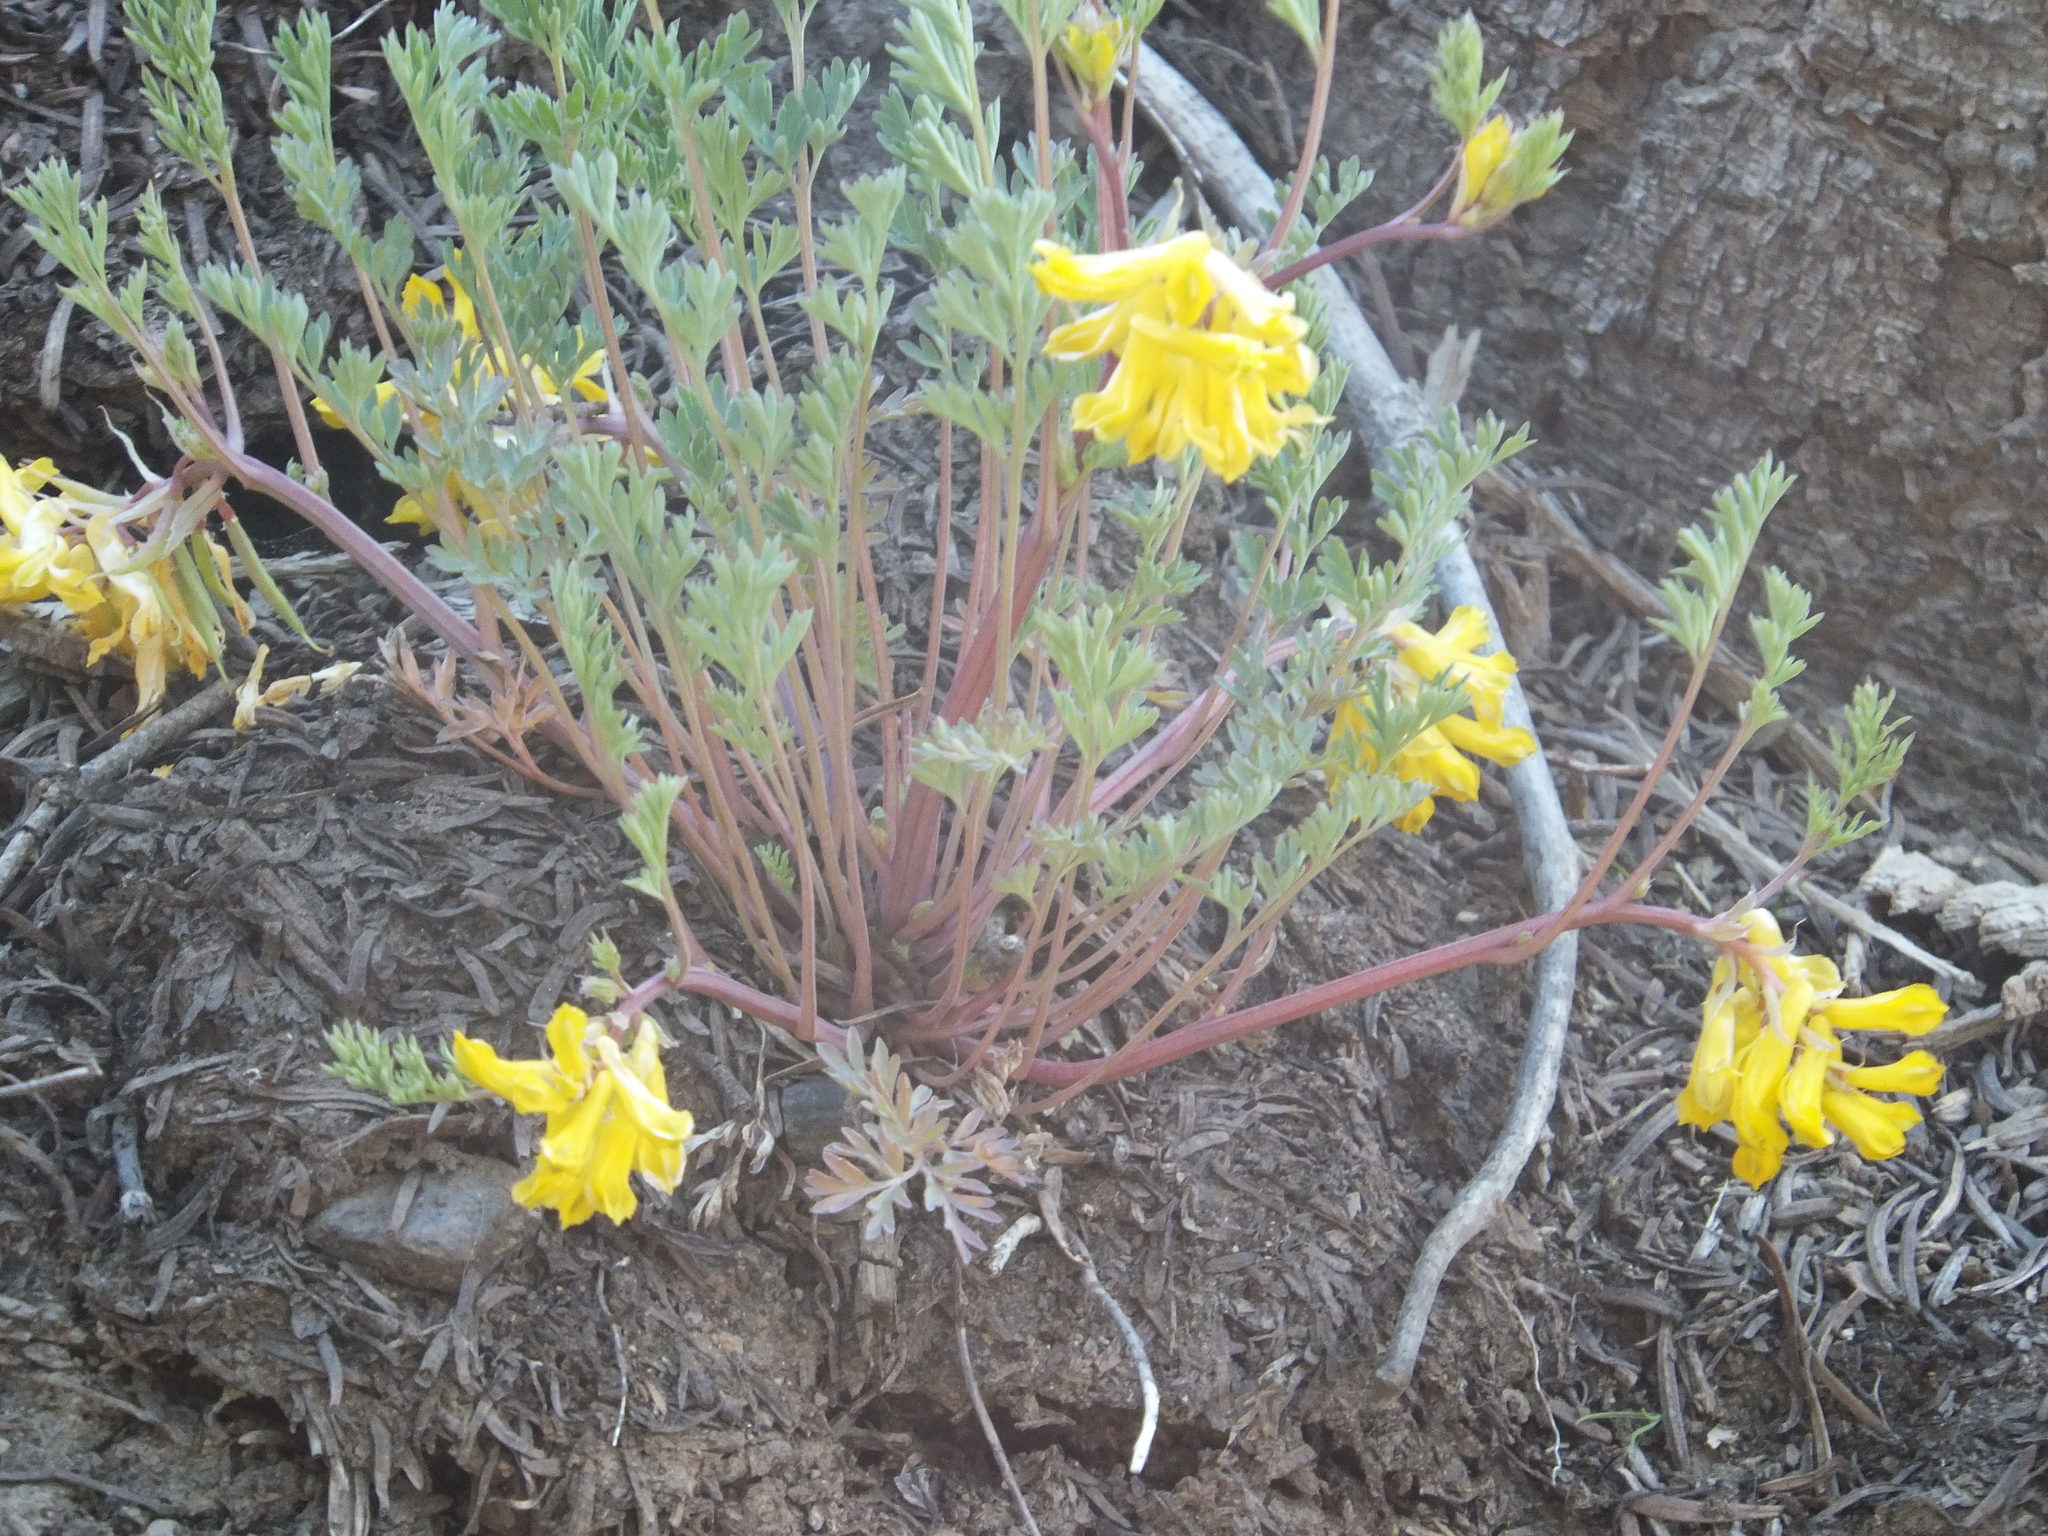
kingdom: Plantae
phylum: Tracheophyta
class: Magnoliopsida
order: Ranunculales
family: Papaveraceae
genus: Corydalis
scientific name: Corydalis aurea
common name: Golden corydalis
